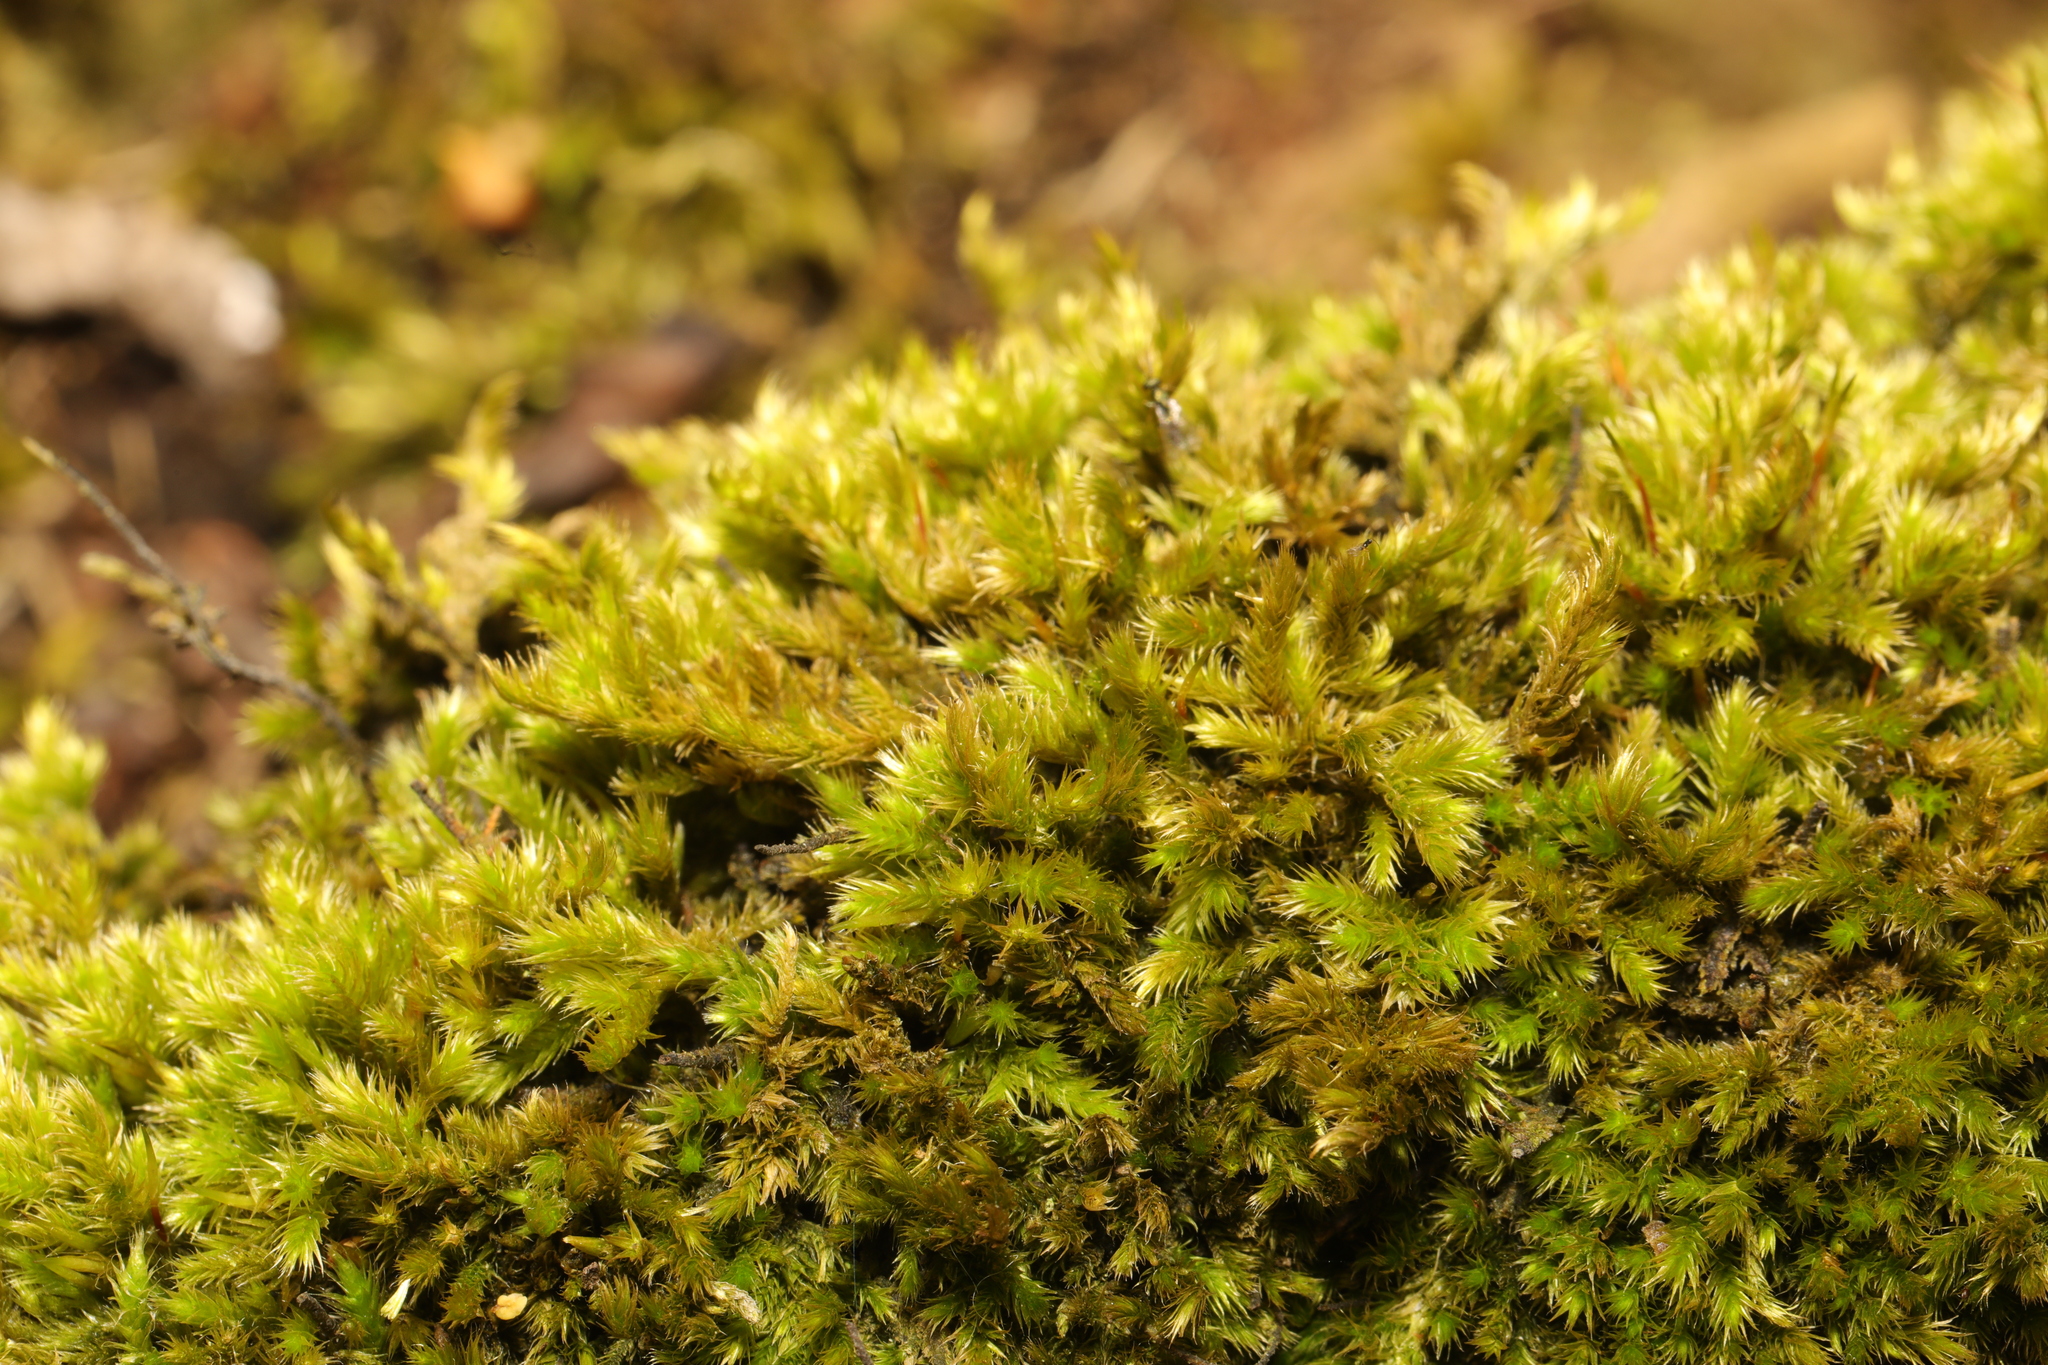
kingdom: Plantae
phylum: Bryophyta
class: Bryopsida
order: Hypnales
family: Brachytheciaceae
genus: Homalothecium
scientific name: Homalothecium sericeum
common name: Silky wall feather-moss
